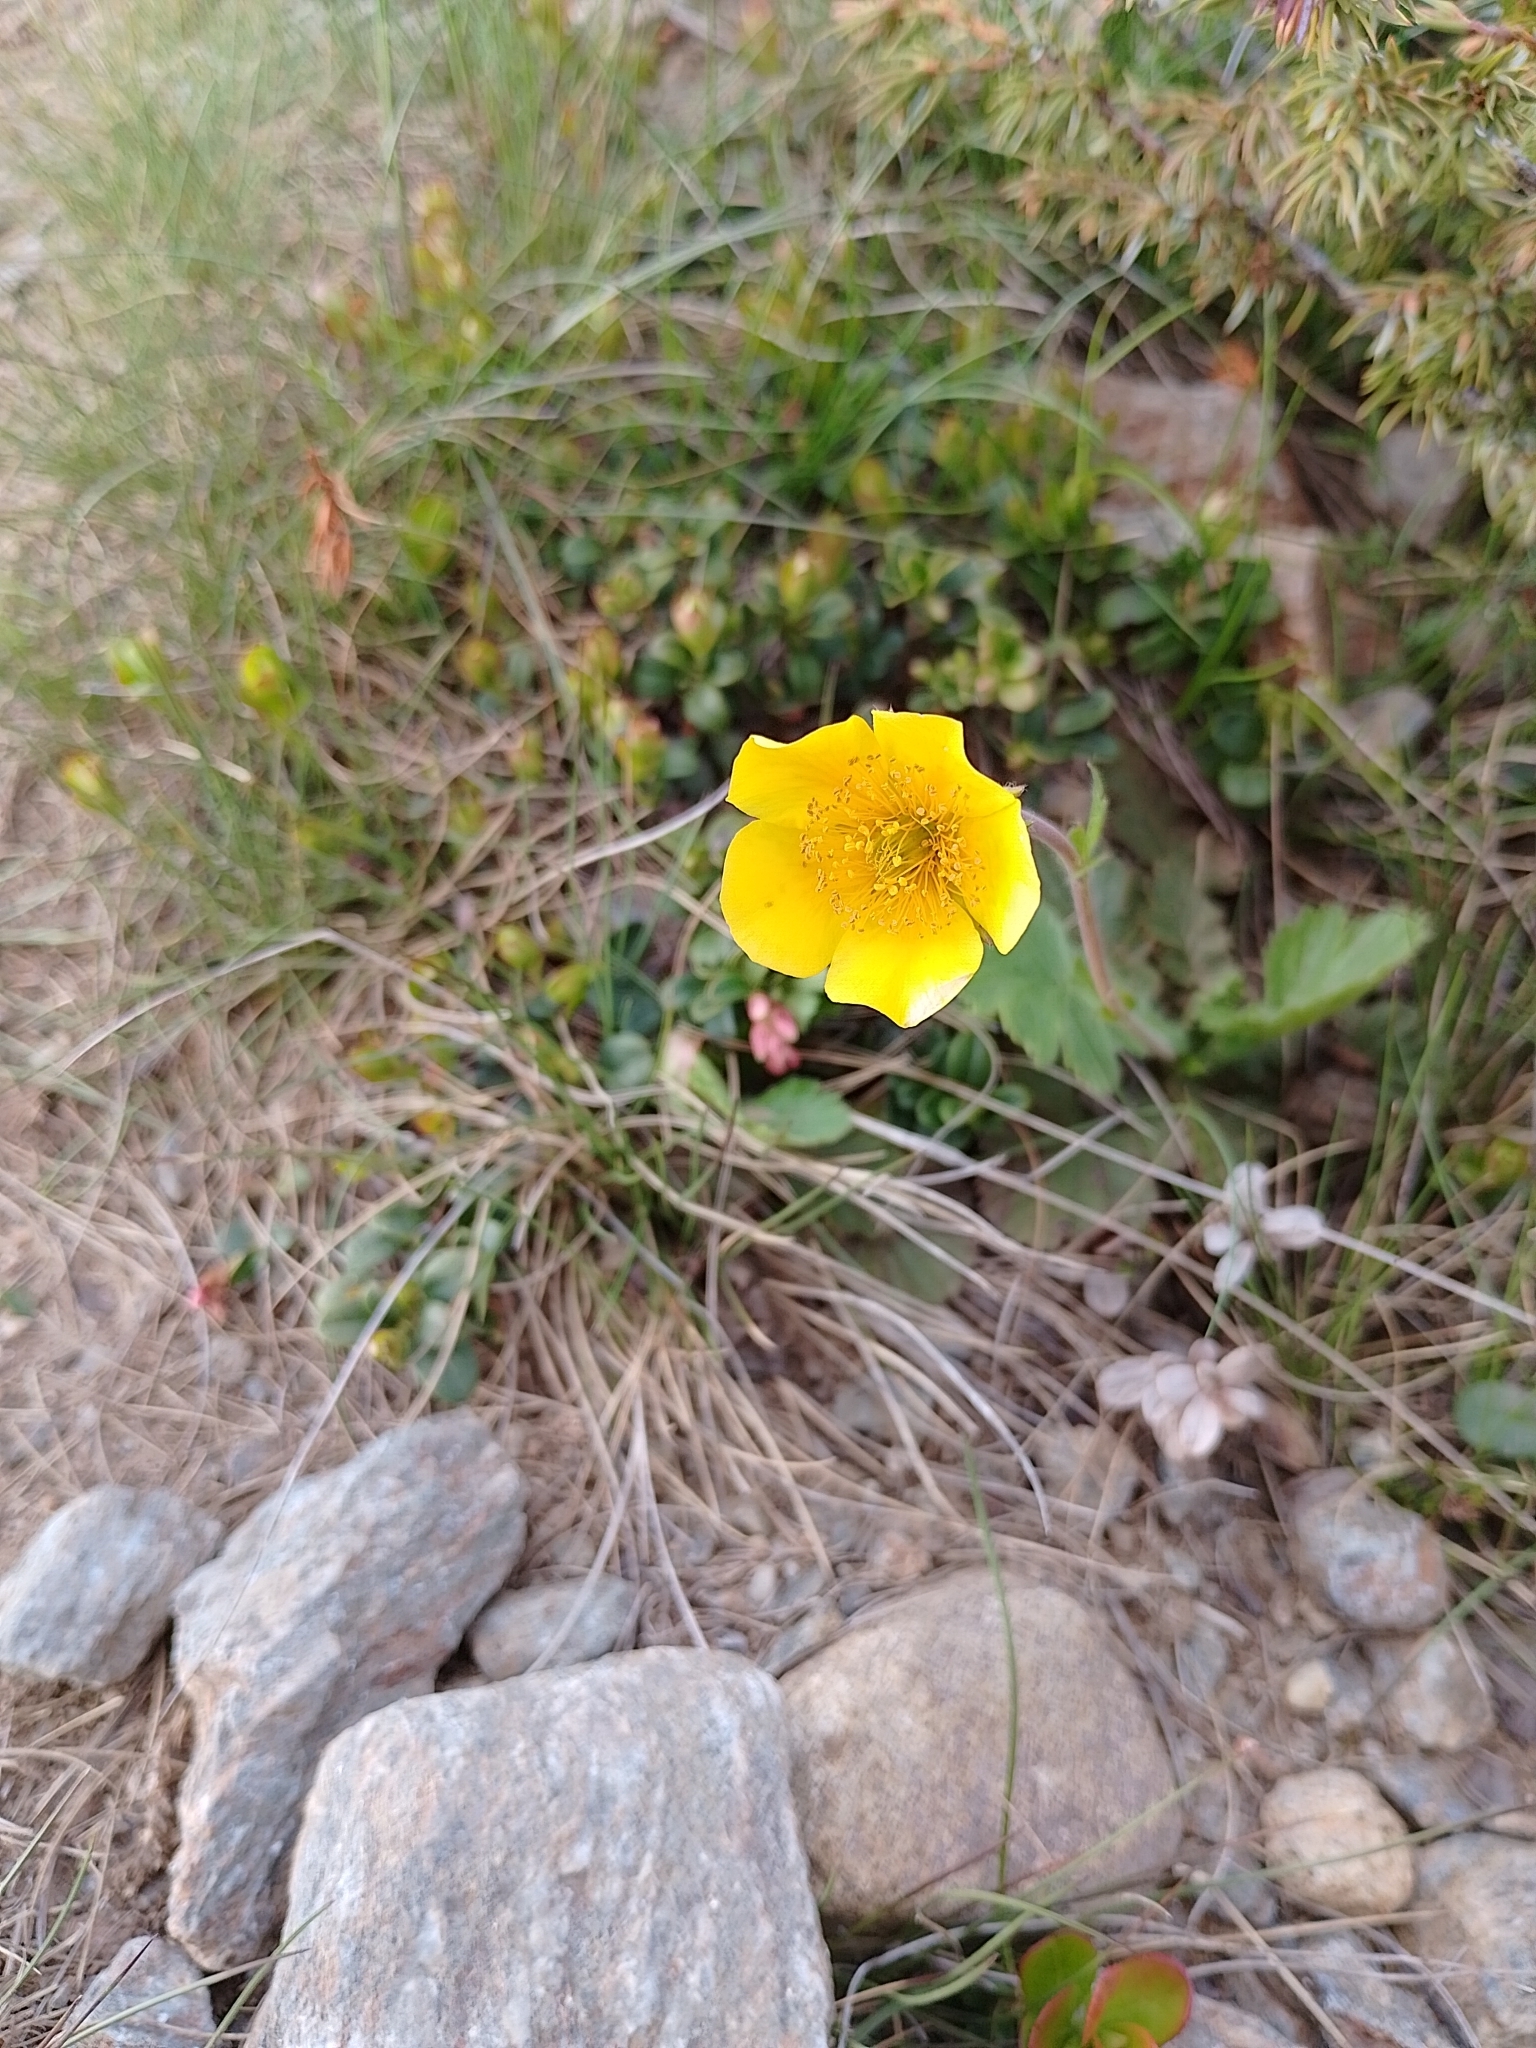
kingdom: Plantae
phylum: Tracheophyta
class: Magnoliopsida
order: Rosales
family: Rosaceae
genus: Geum
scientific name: Geum montanum
